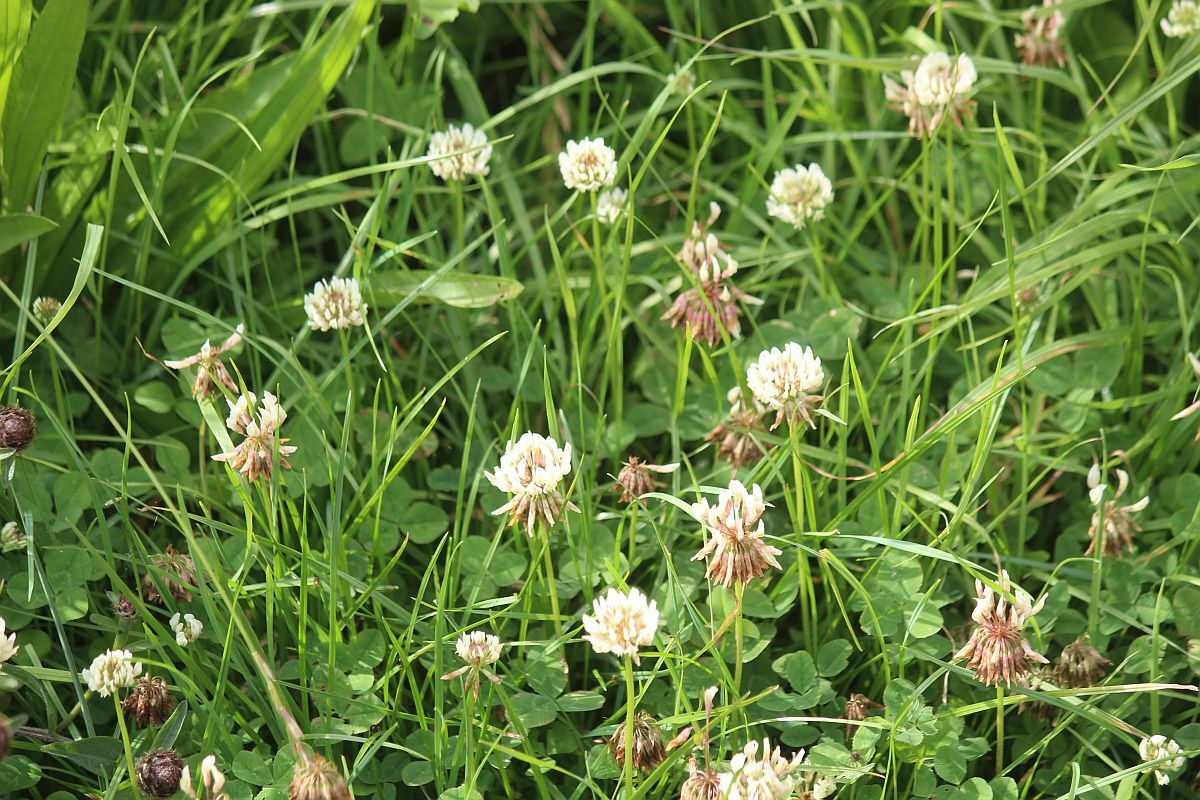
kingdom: Plantae
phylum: Tracheophyta
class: Magnoliopsida
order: Fabales
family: Fabaceae
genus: Trifolium
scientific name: Trifolium repens
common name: White clover
